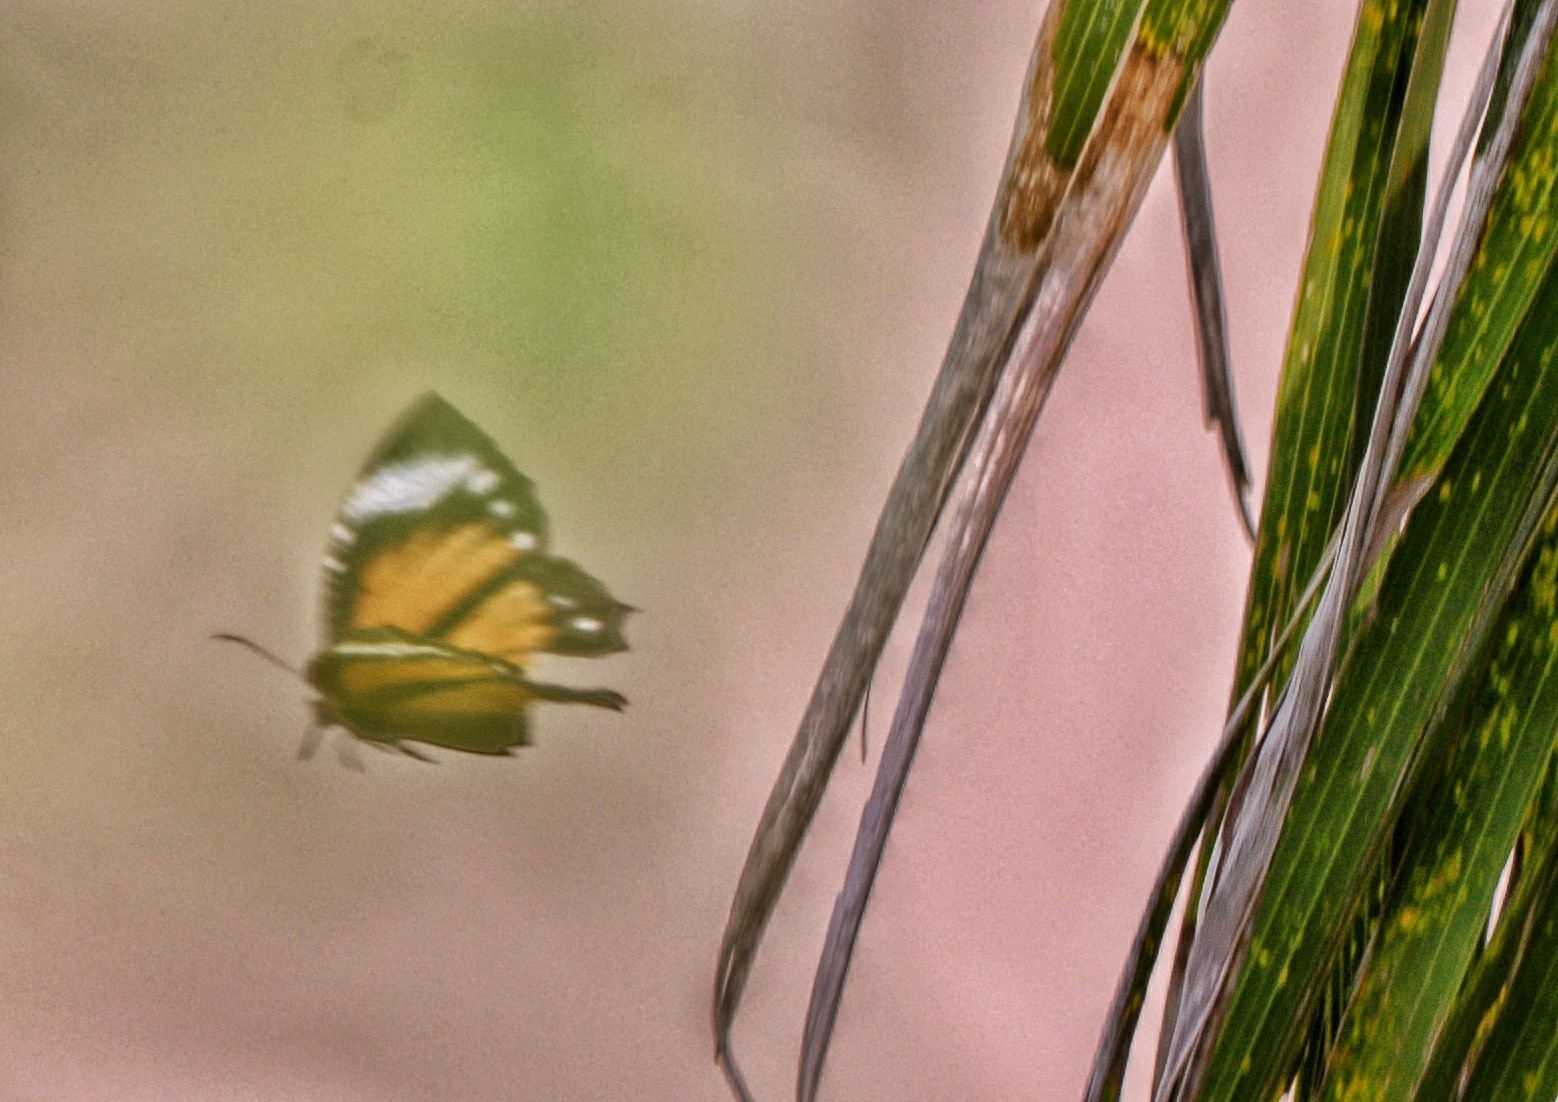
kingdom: Animalia
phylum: Arthropoda
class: Insecta
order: Lepidoptera
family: Nymphalidae
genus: Elymnias
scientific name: Elymnias hypermnestra
